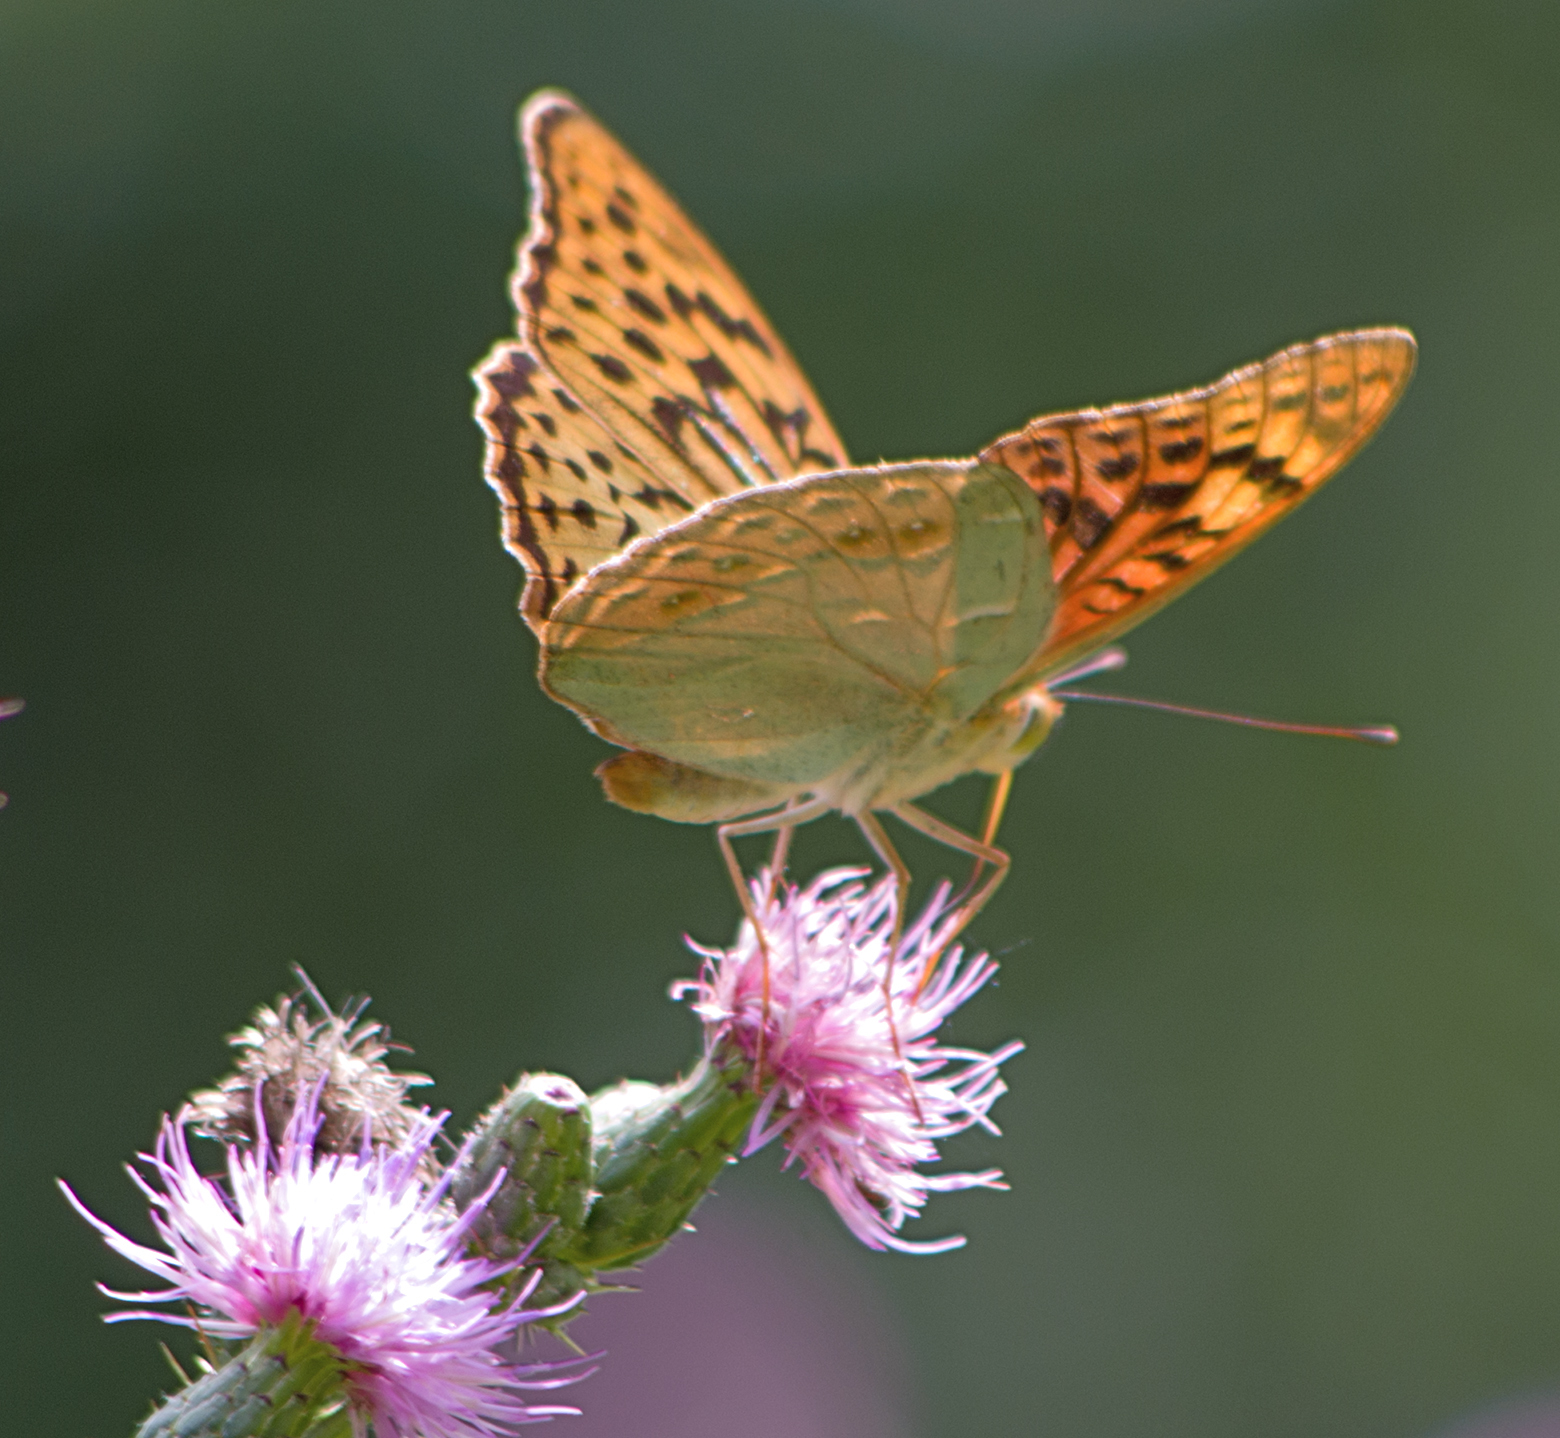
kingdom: Animalia
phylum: Arthropoda
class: Insecta
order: Lepidoptera
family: Nymphalidae
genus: Damora
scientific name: Damora pandora
